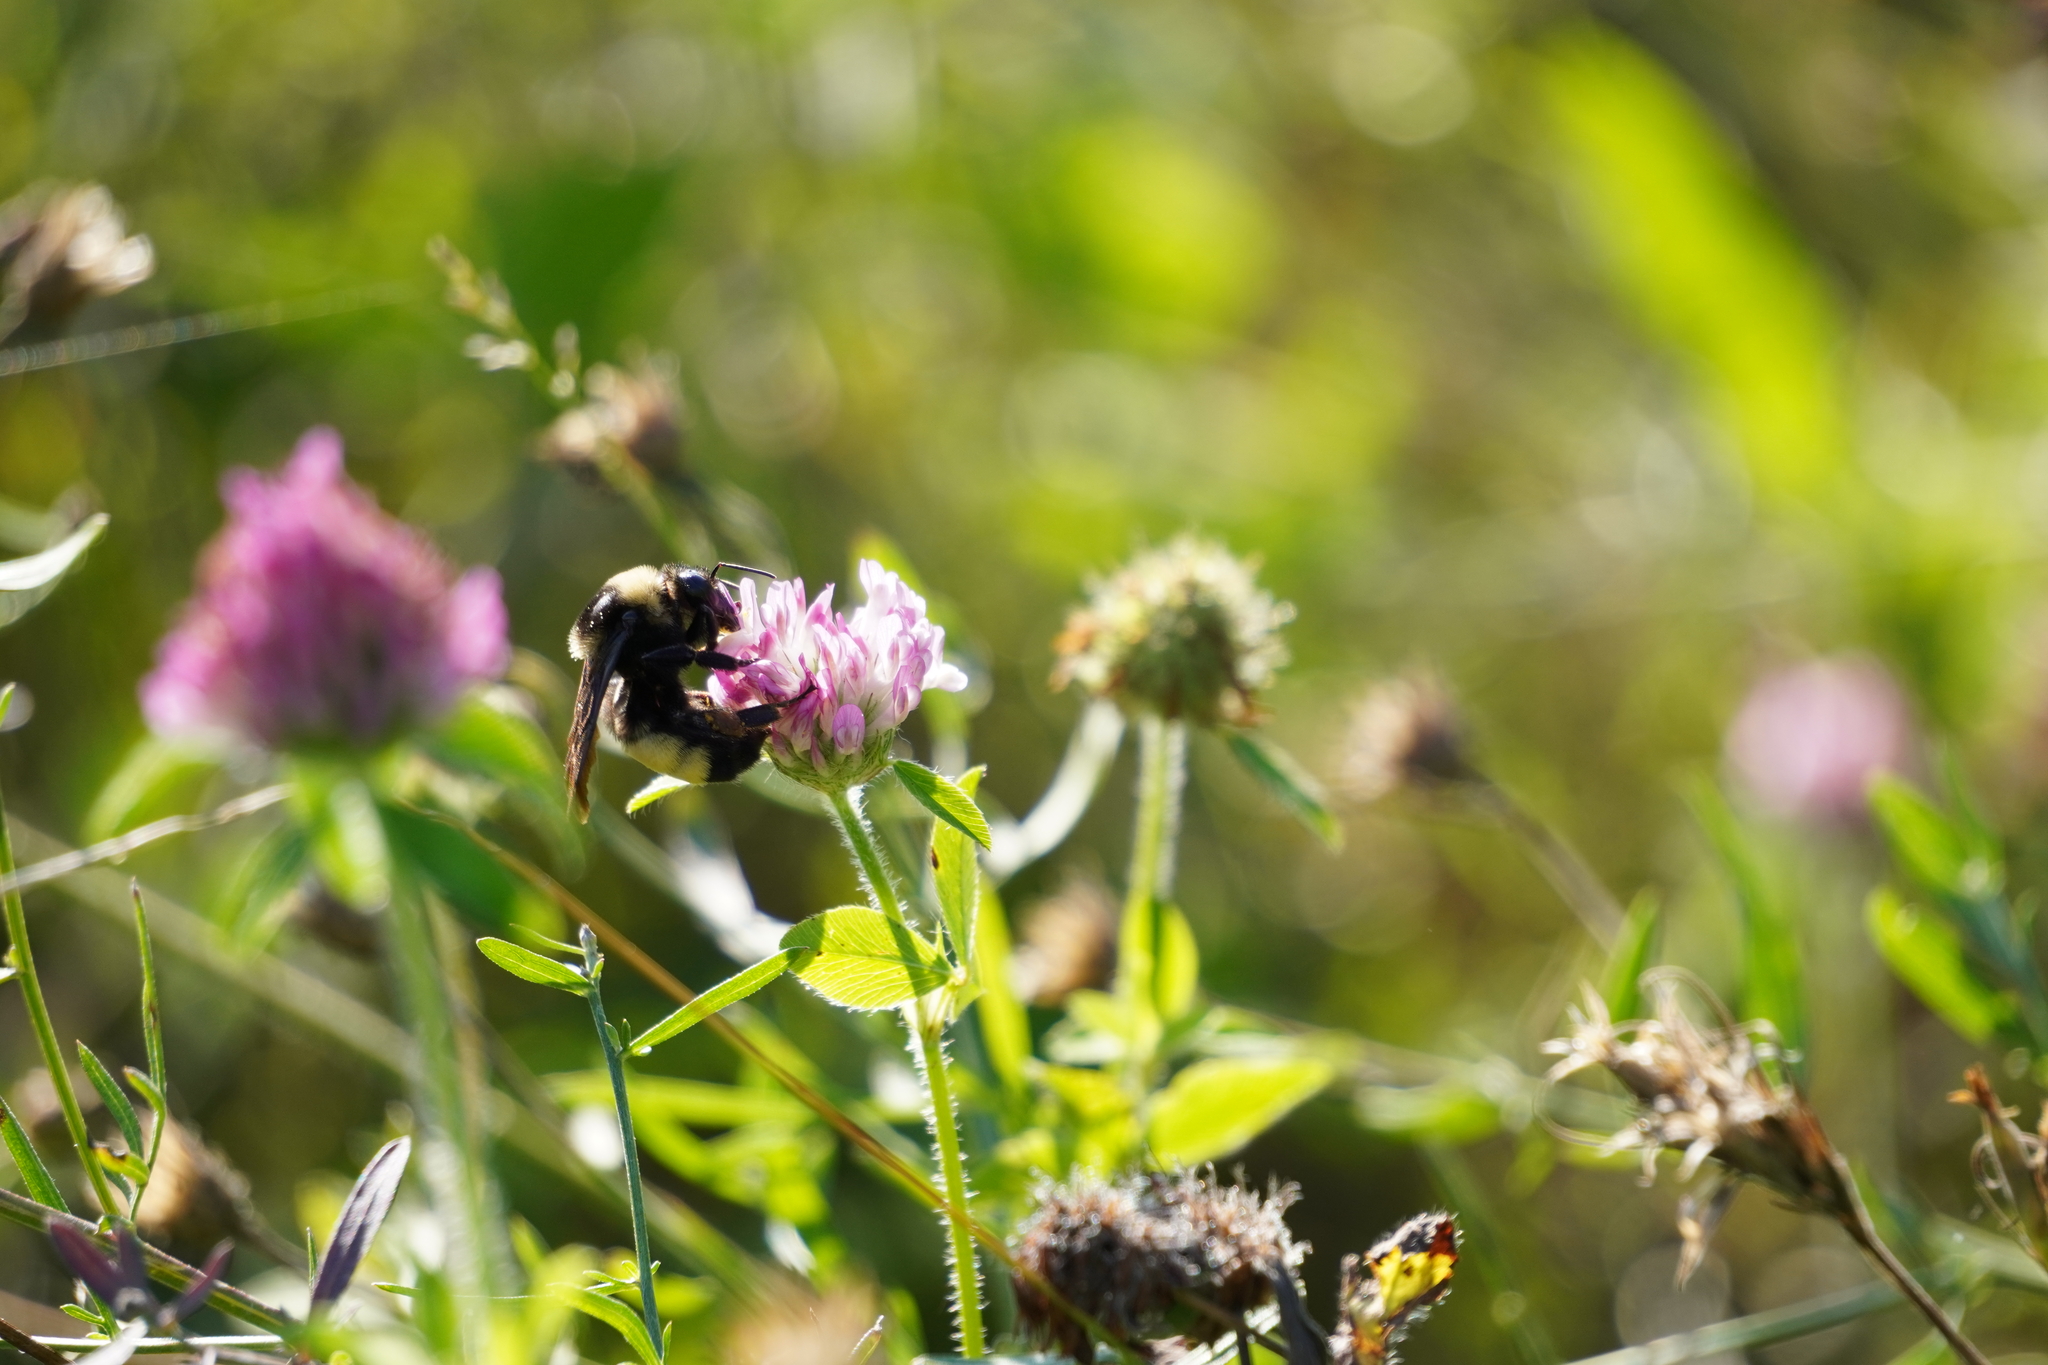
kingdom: Animalia
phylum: Arthropoda
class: Insecta
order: Hymenoptera
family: Apidae
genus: Bombus
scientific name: Bombus auricomus
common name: Black and gold bumble bee
